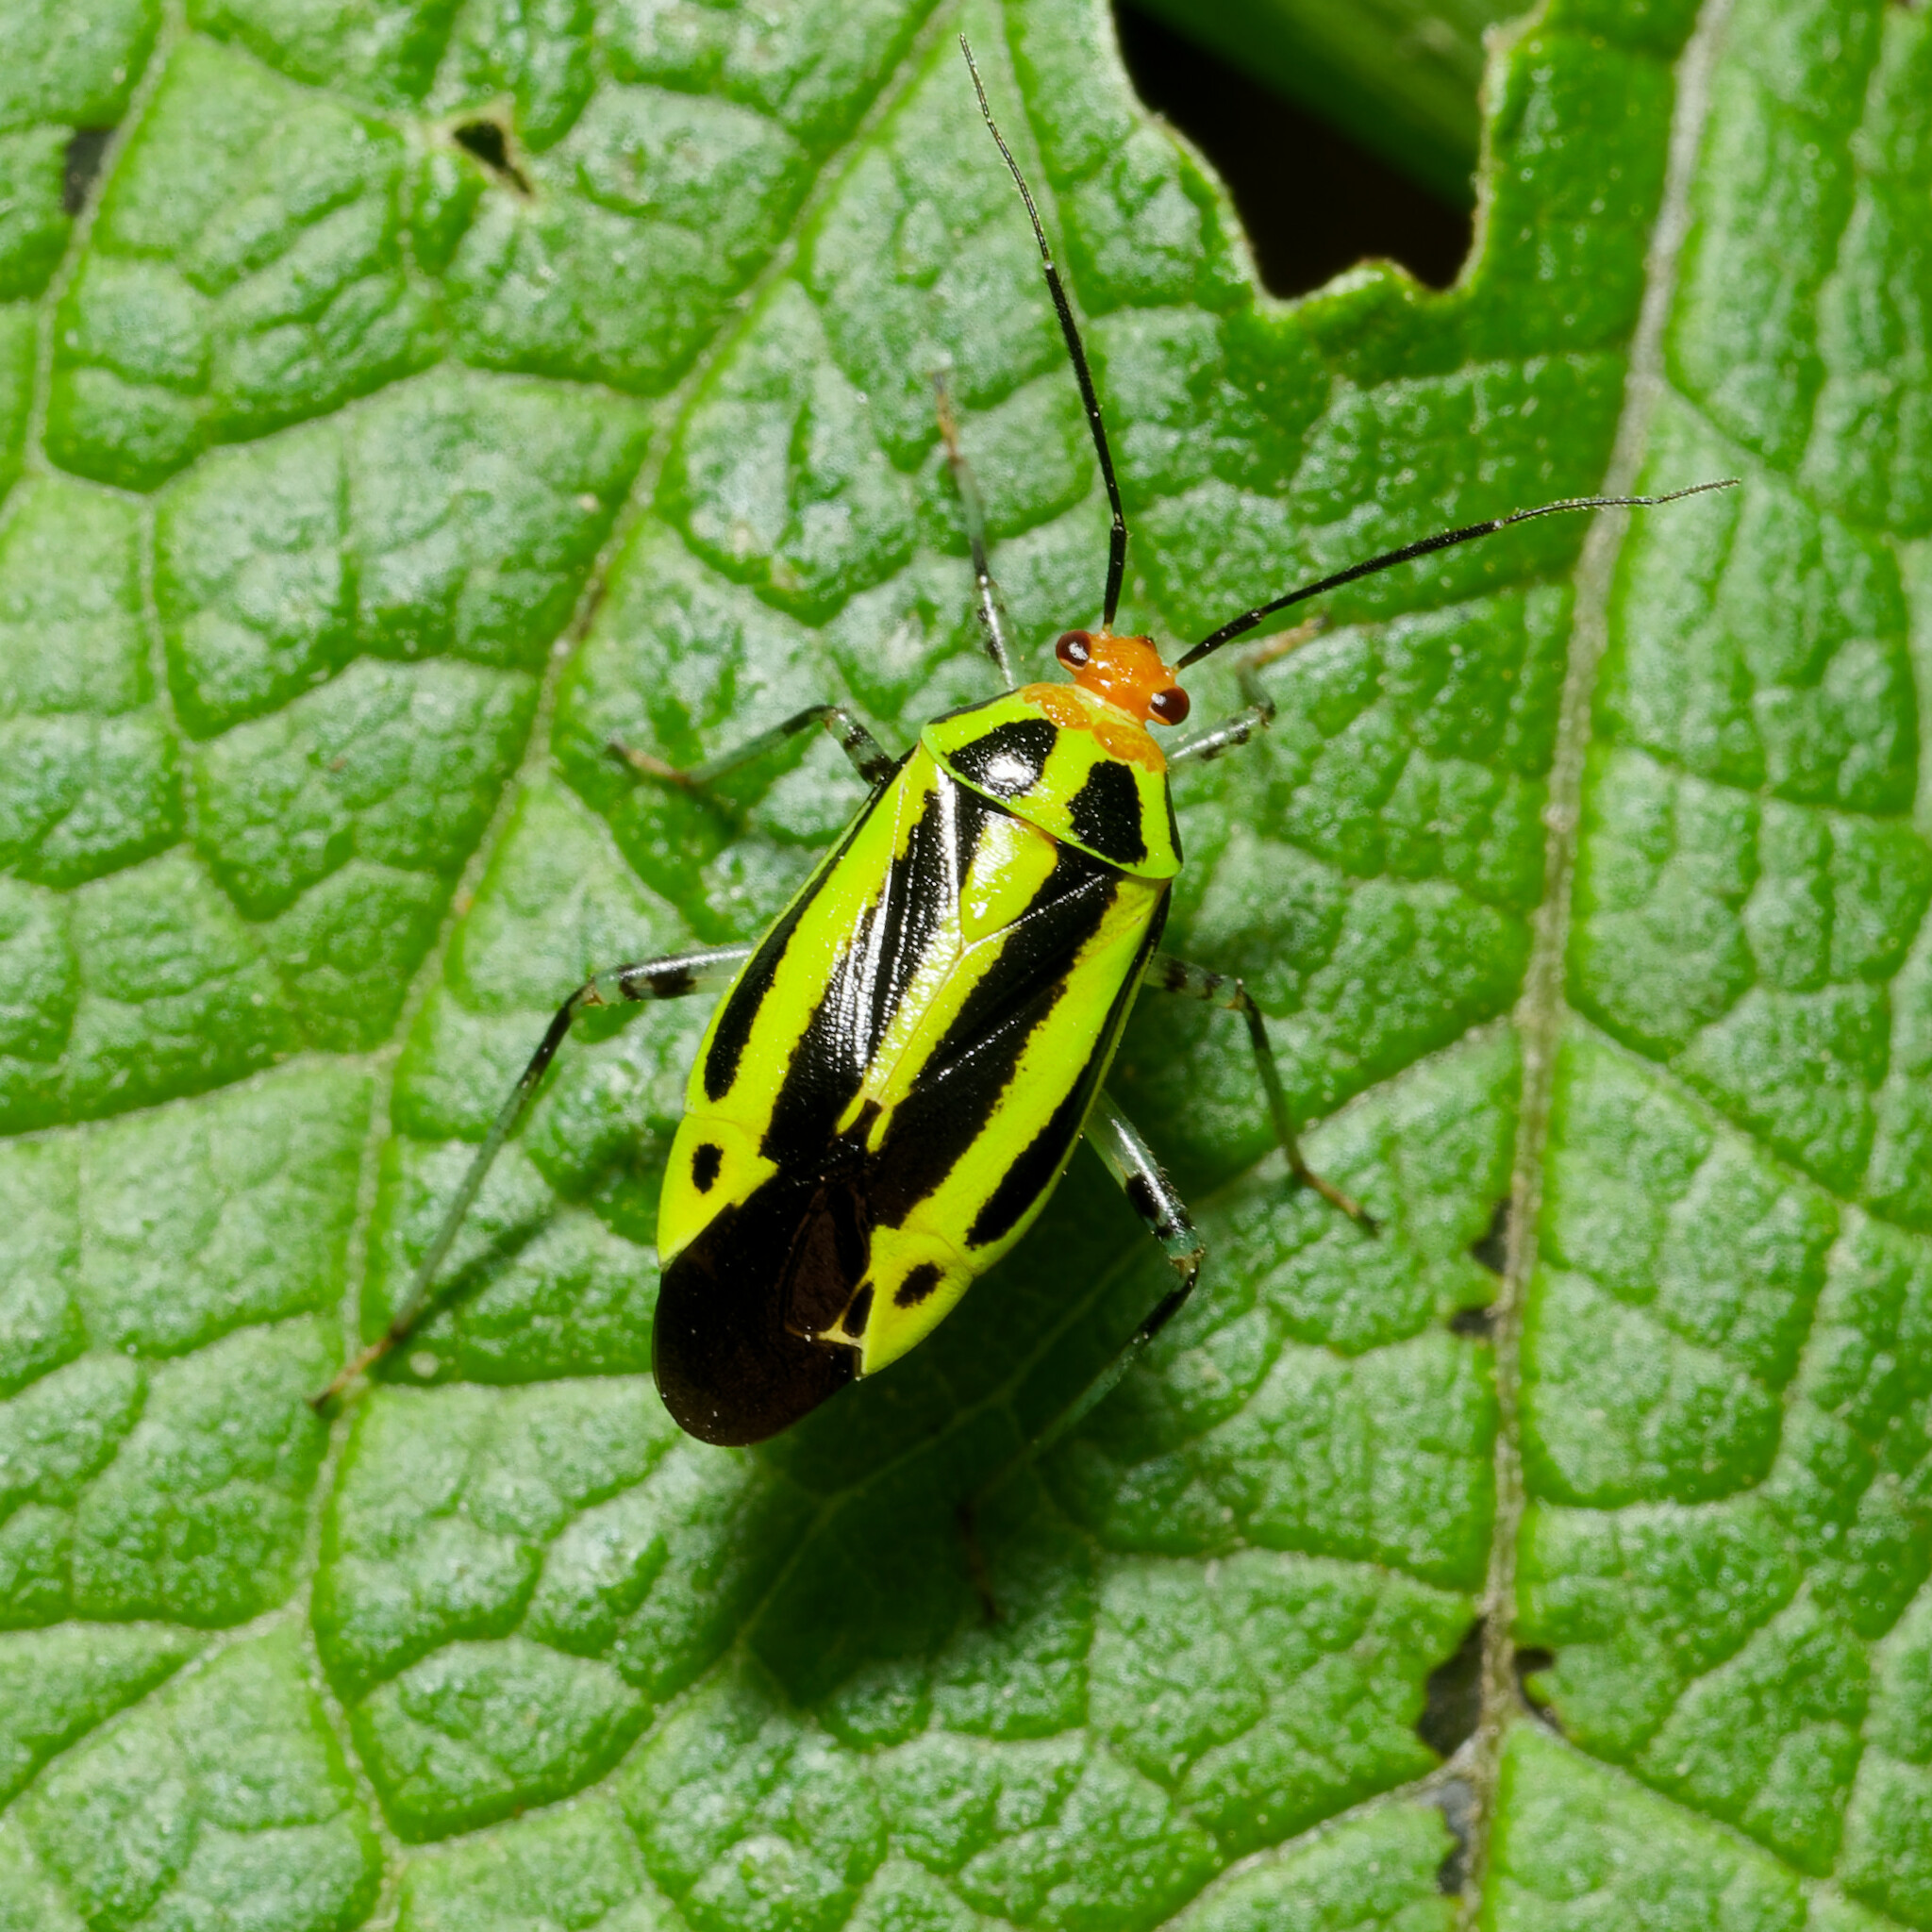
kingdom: Animalia
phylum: Arthropoda
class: Insecta
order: Hemiptera
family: Miridae
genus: Poecilocapsus
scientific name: Poecilocapsus lineatus
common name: Four-lined plant bug
